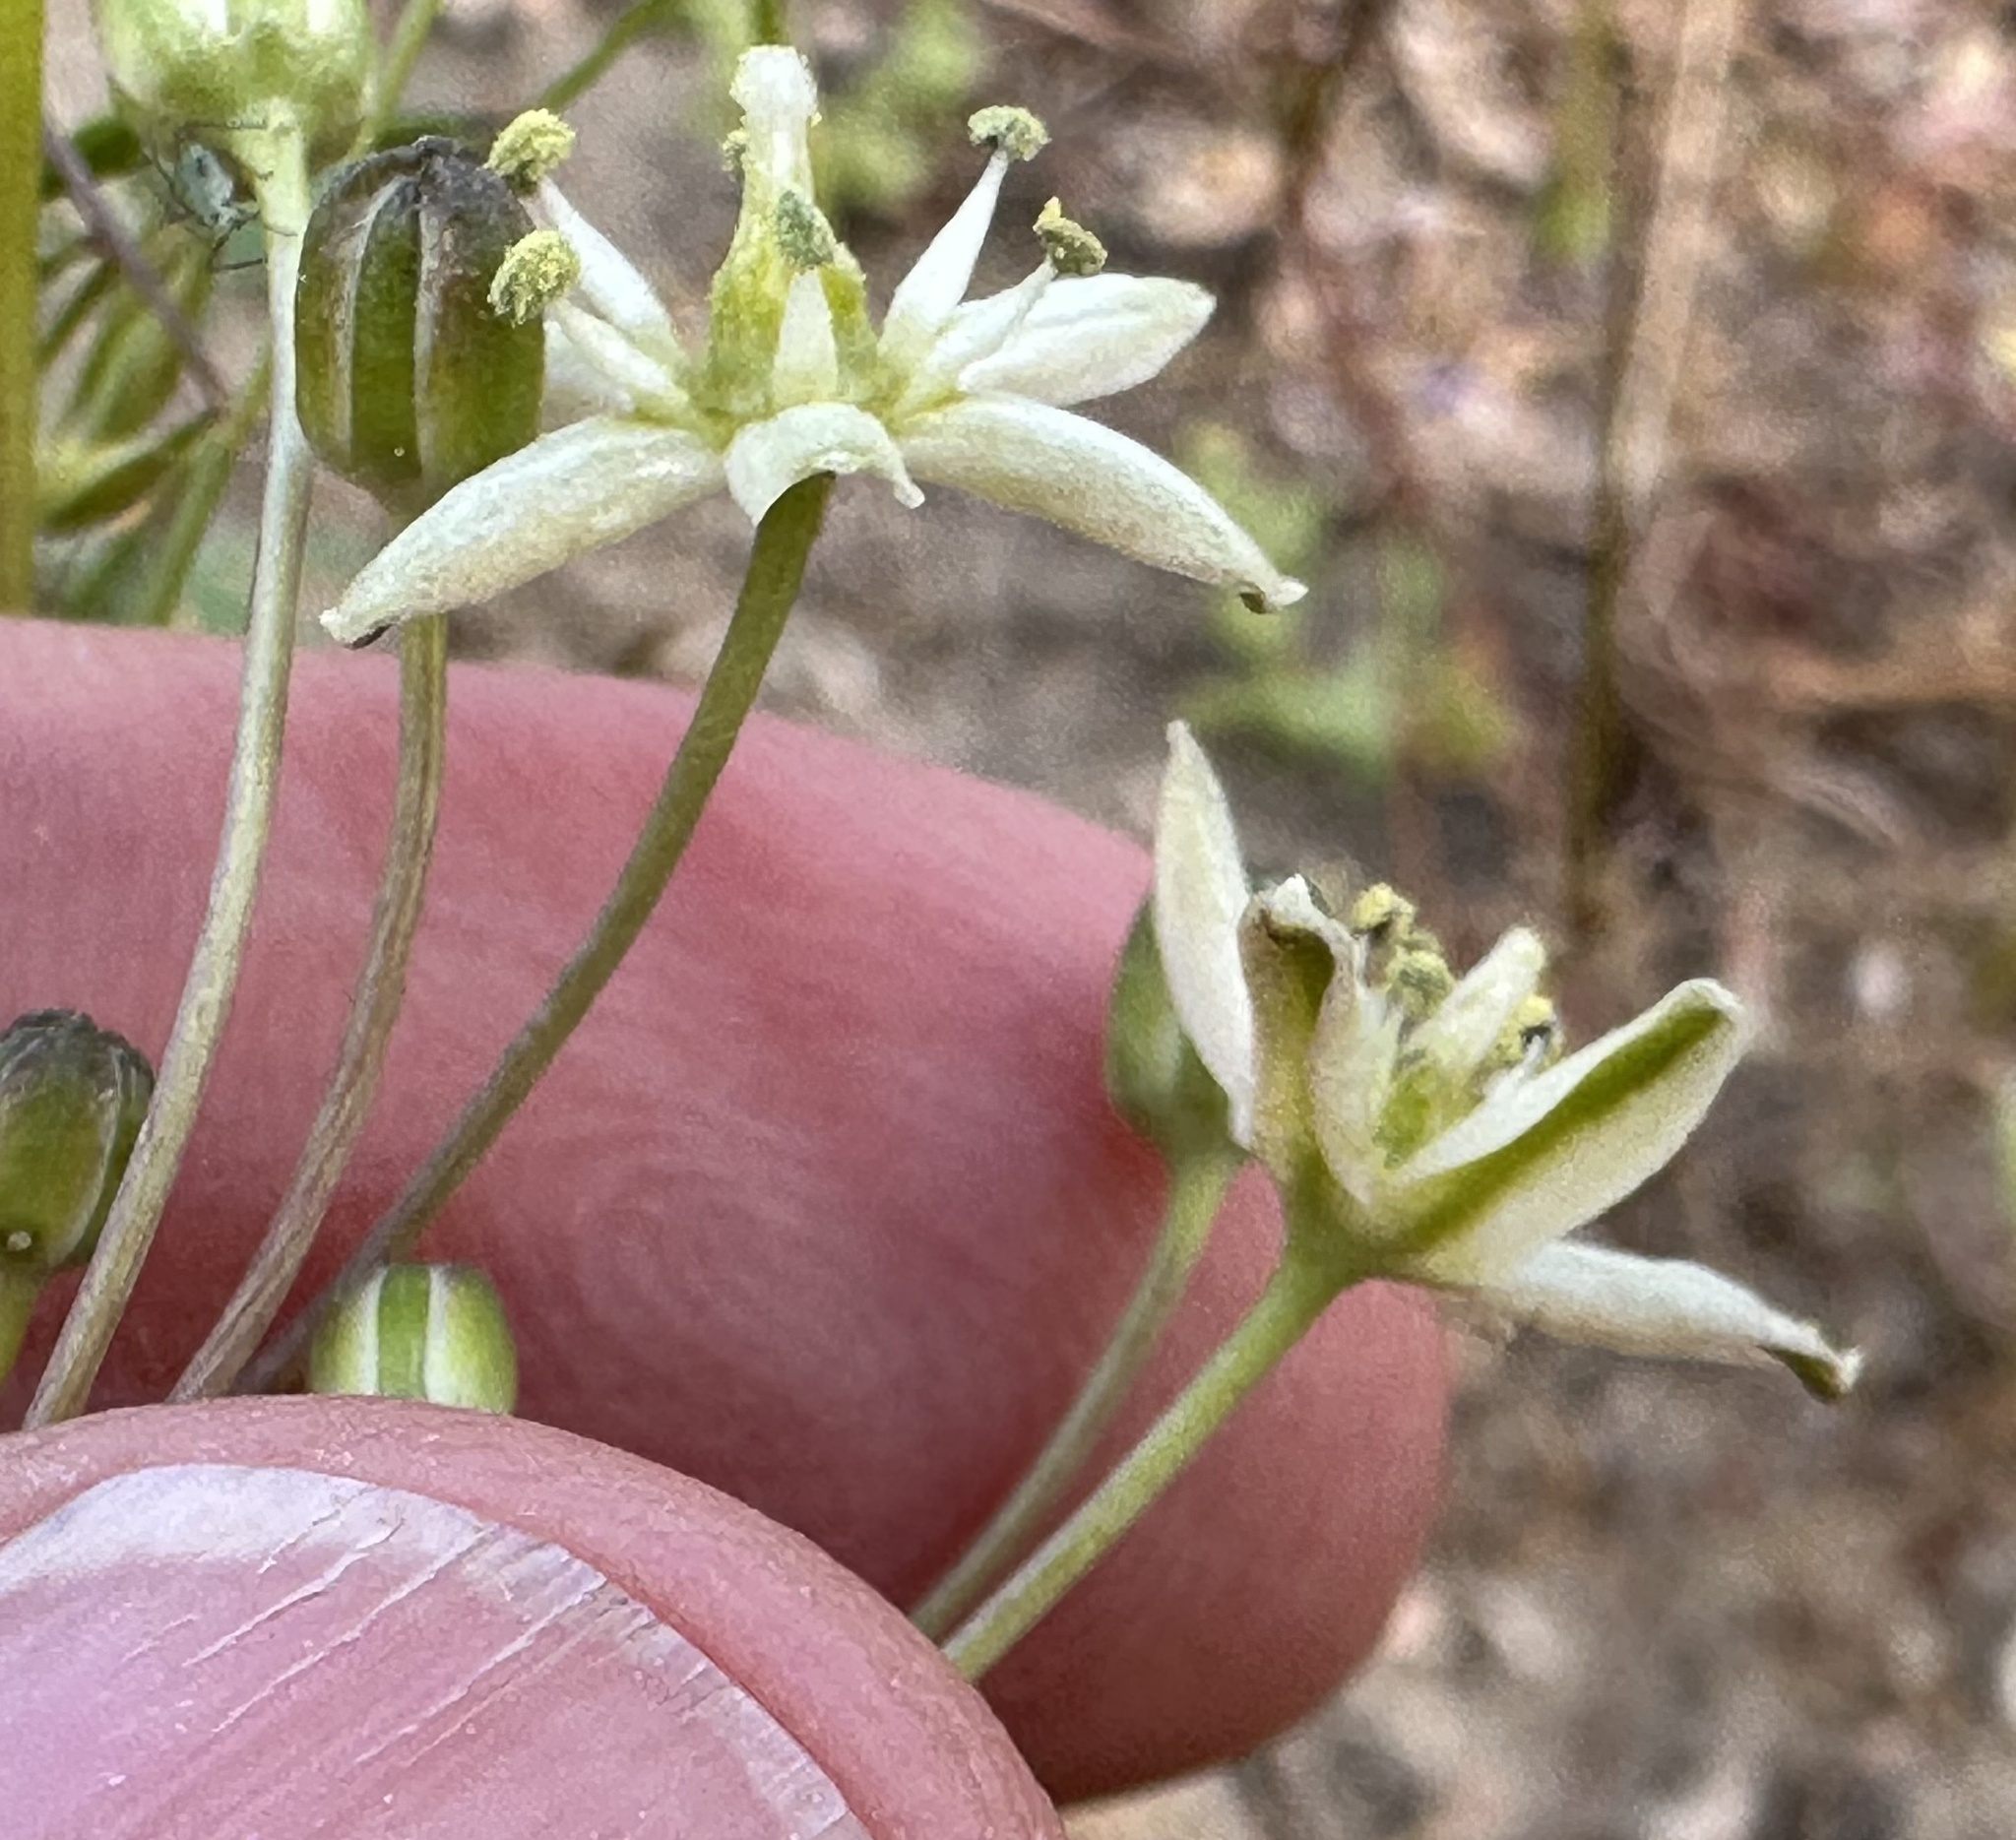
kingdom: Plantae
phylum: Tracheophyta
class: Liliopsida
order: Asparagales
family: Asparagaceae
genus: Muilla
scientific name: Muilla maritima
